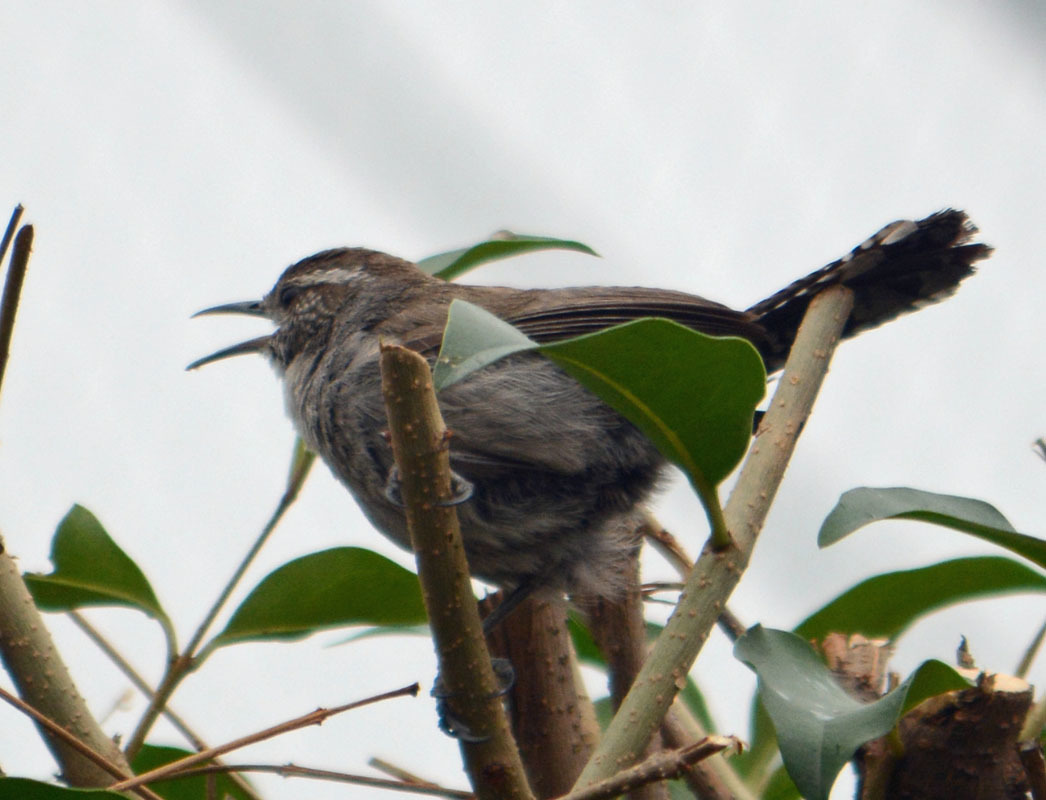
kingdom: Animalia
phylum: Chordata
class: Aves
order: Passeriformes
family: Troglodytidae
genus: Thryomanes
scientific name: Thryomanes bewickii
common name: Bewick's wren
